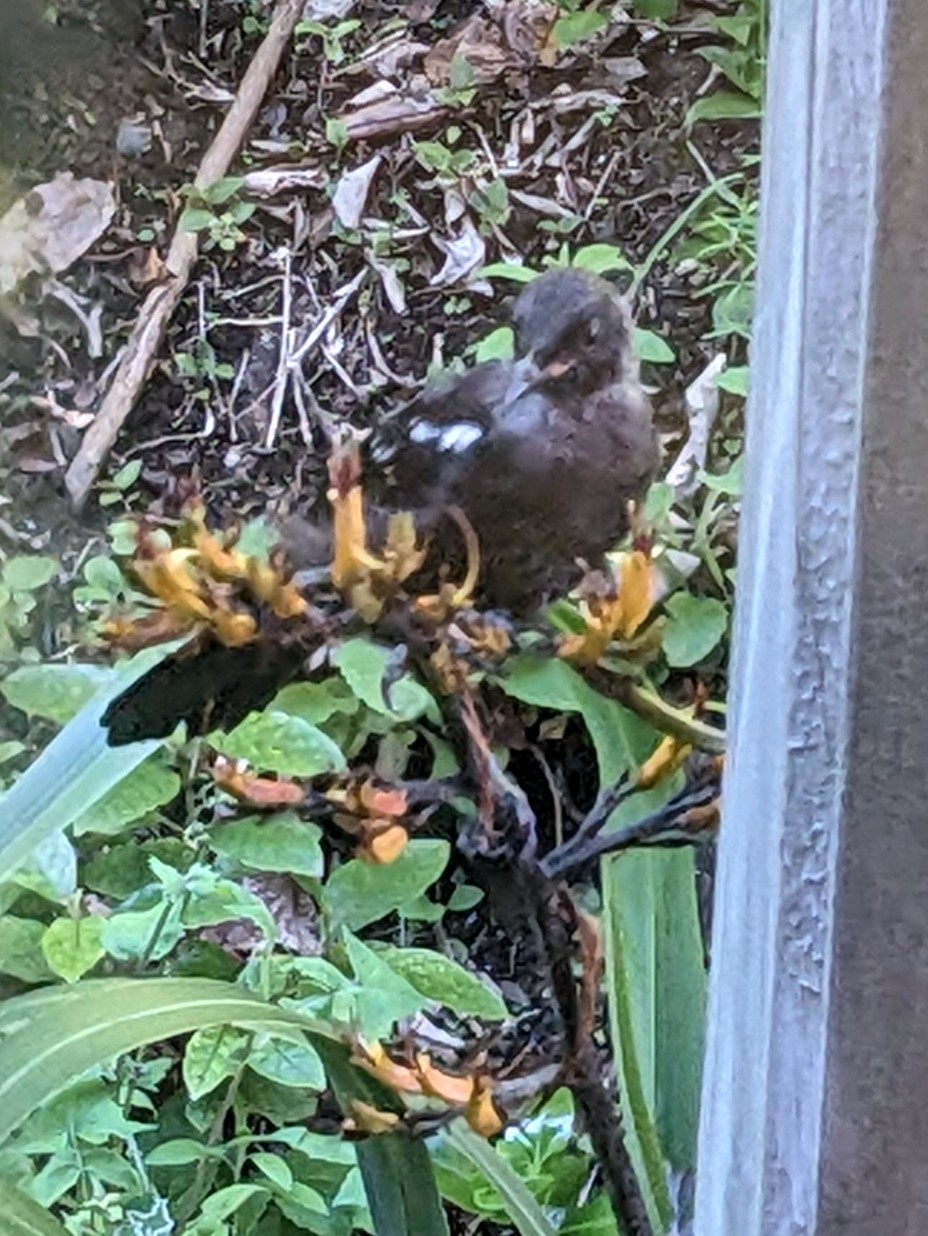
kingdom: Animalia
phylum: Chordata
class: Aves
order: Passeriformes
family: Meliphagidae
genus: Prosthemadera
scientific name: Prosthemadera novaeseelandiae
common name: Tui
